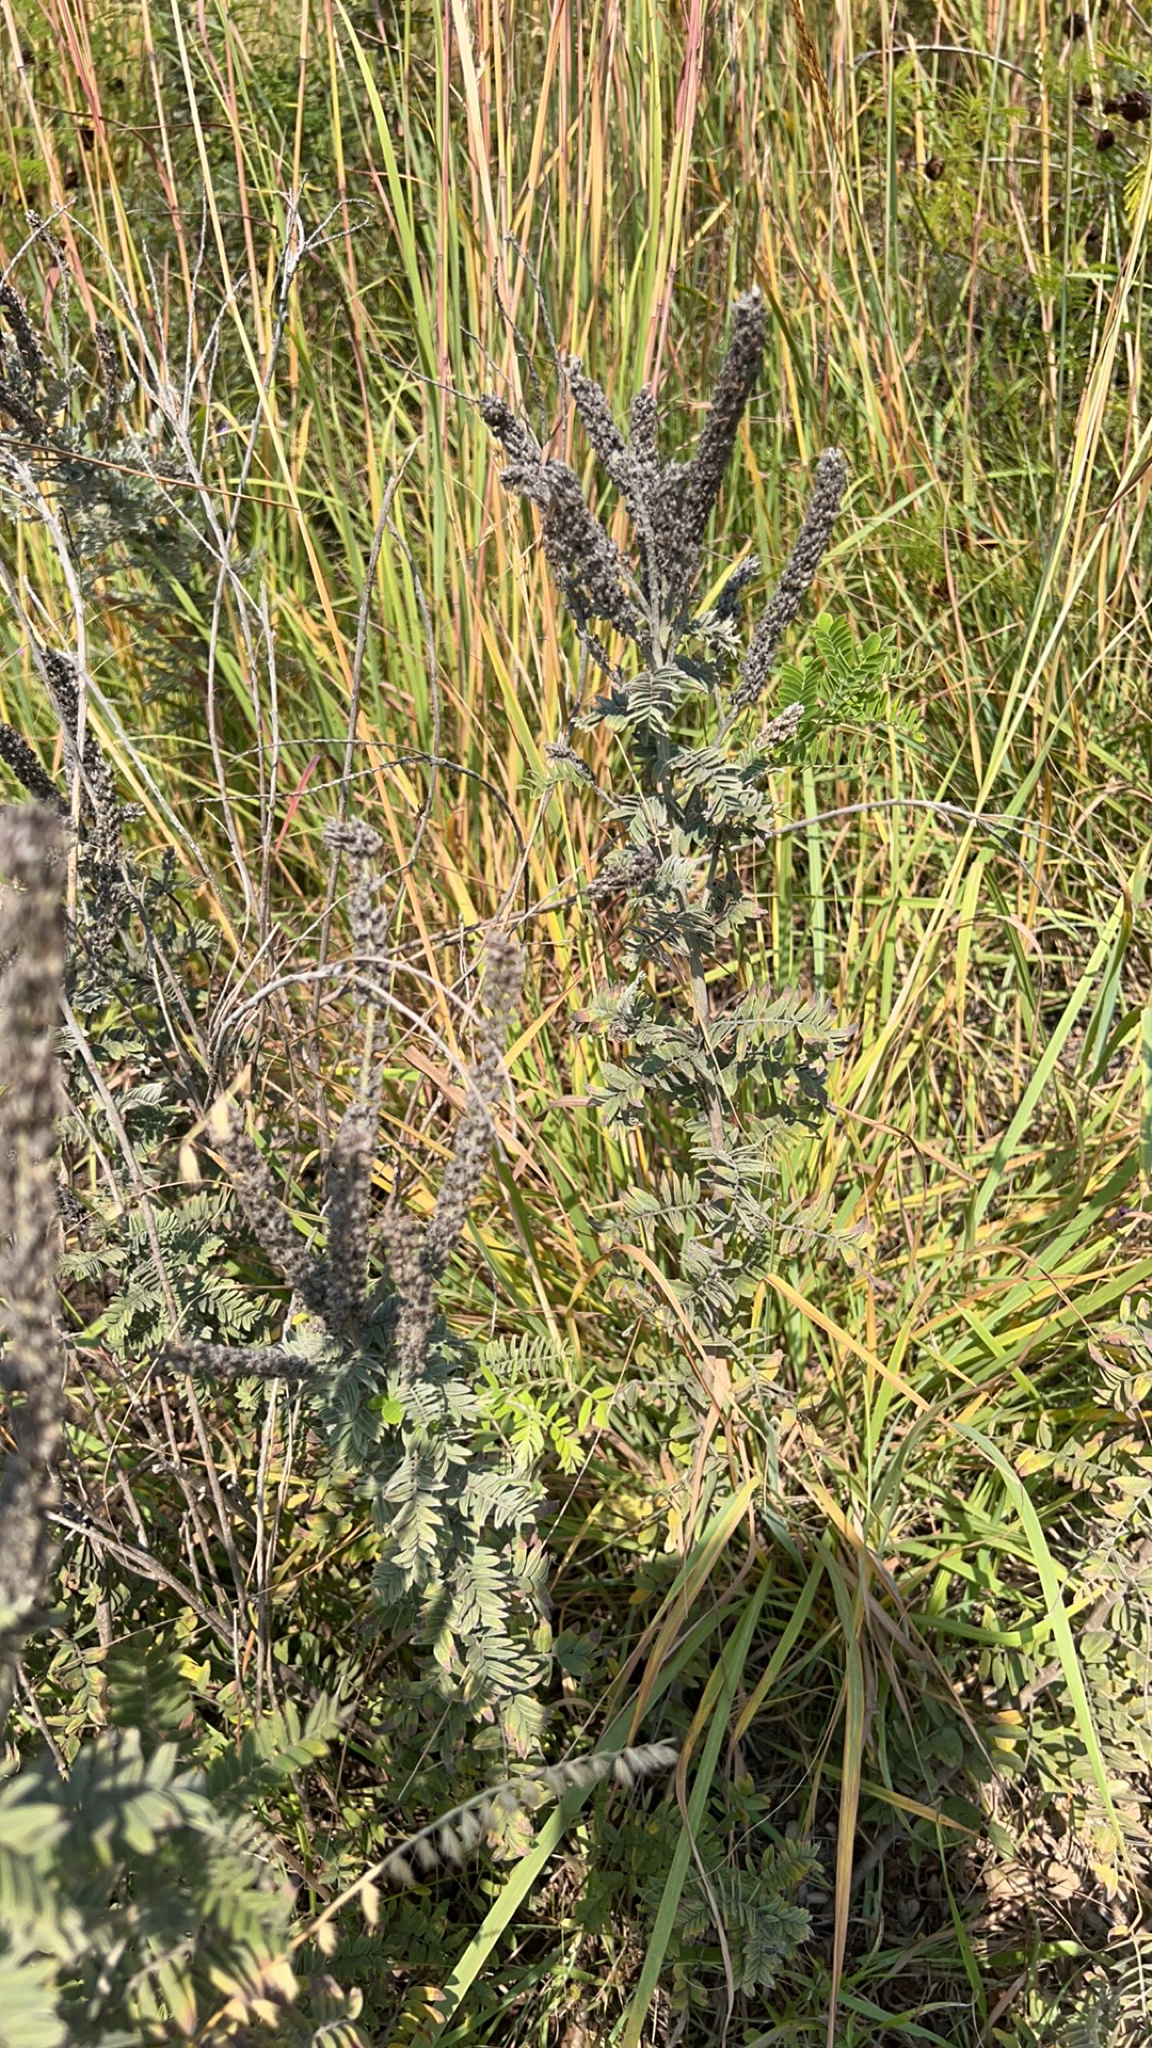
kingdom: Plantae
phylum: Tracheophyta
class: Magnoliopsida
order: Fabales
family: Fabaceae
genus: Amorpha
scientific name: Amorpha canescens
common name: Leadplant
